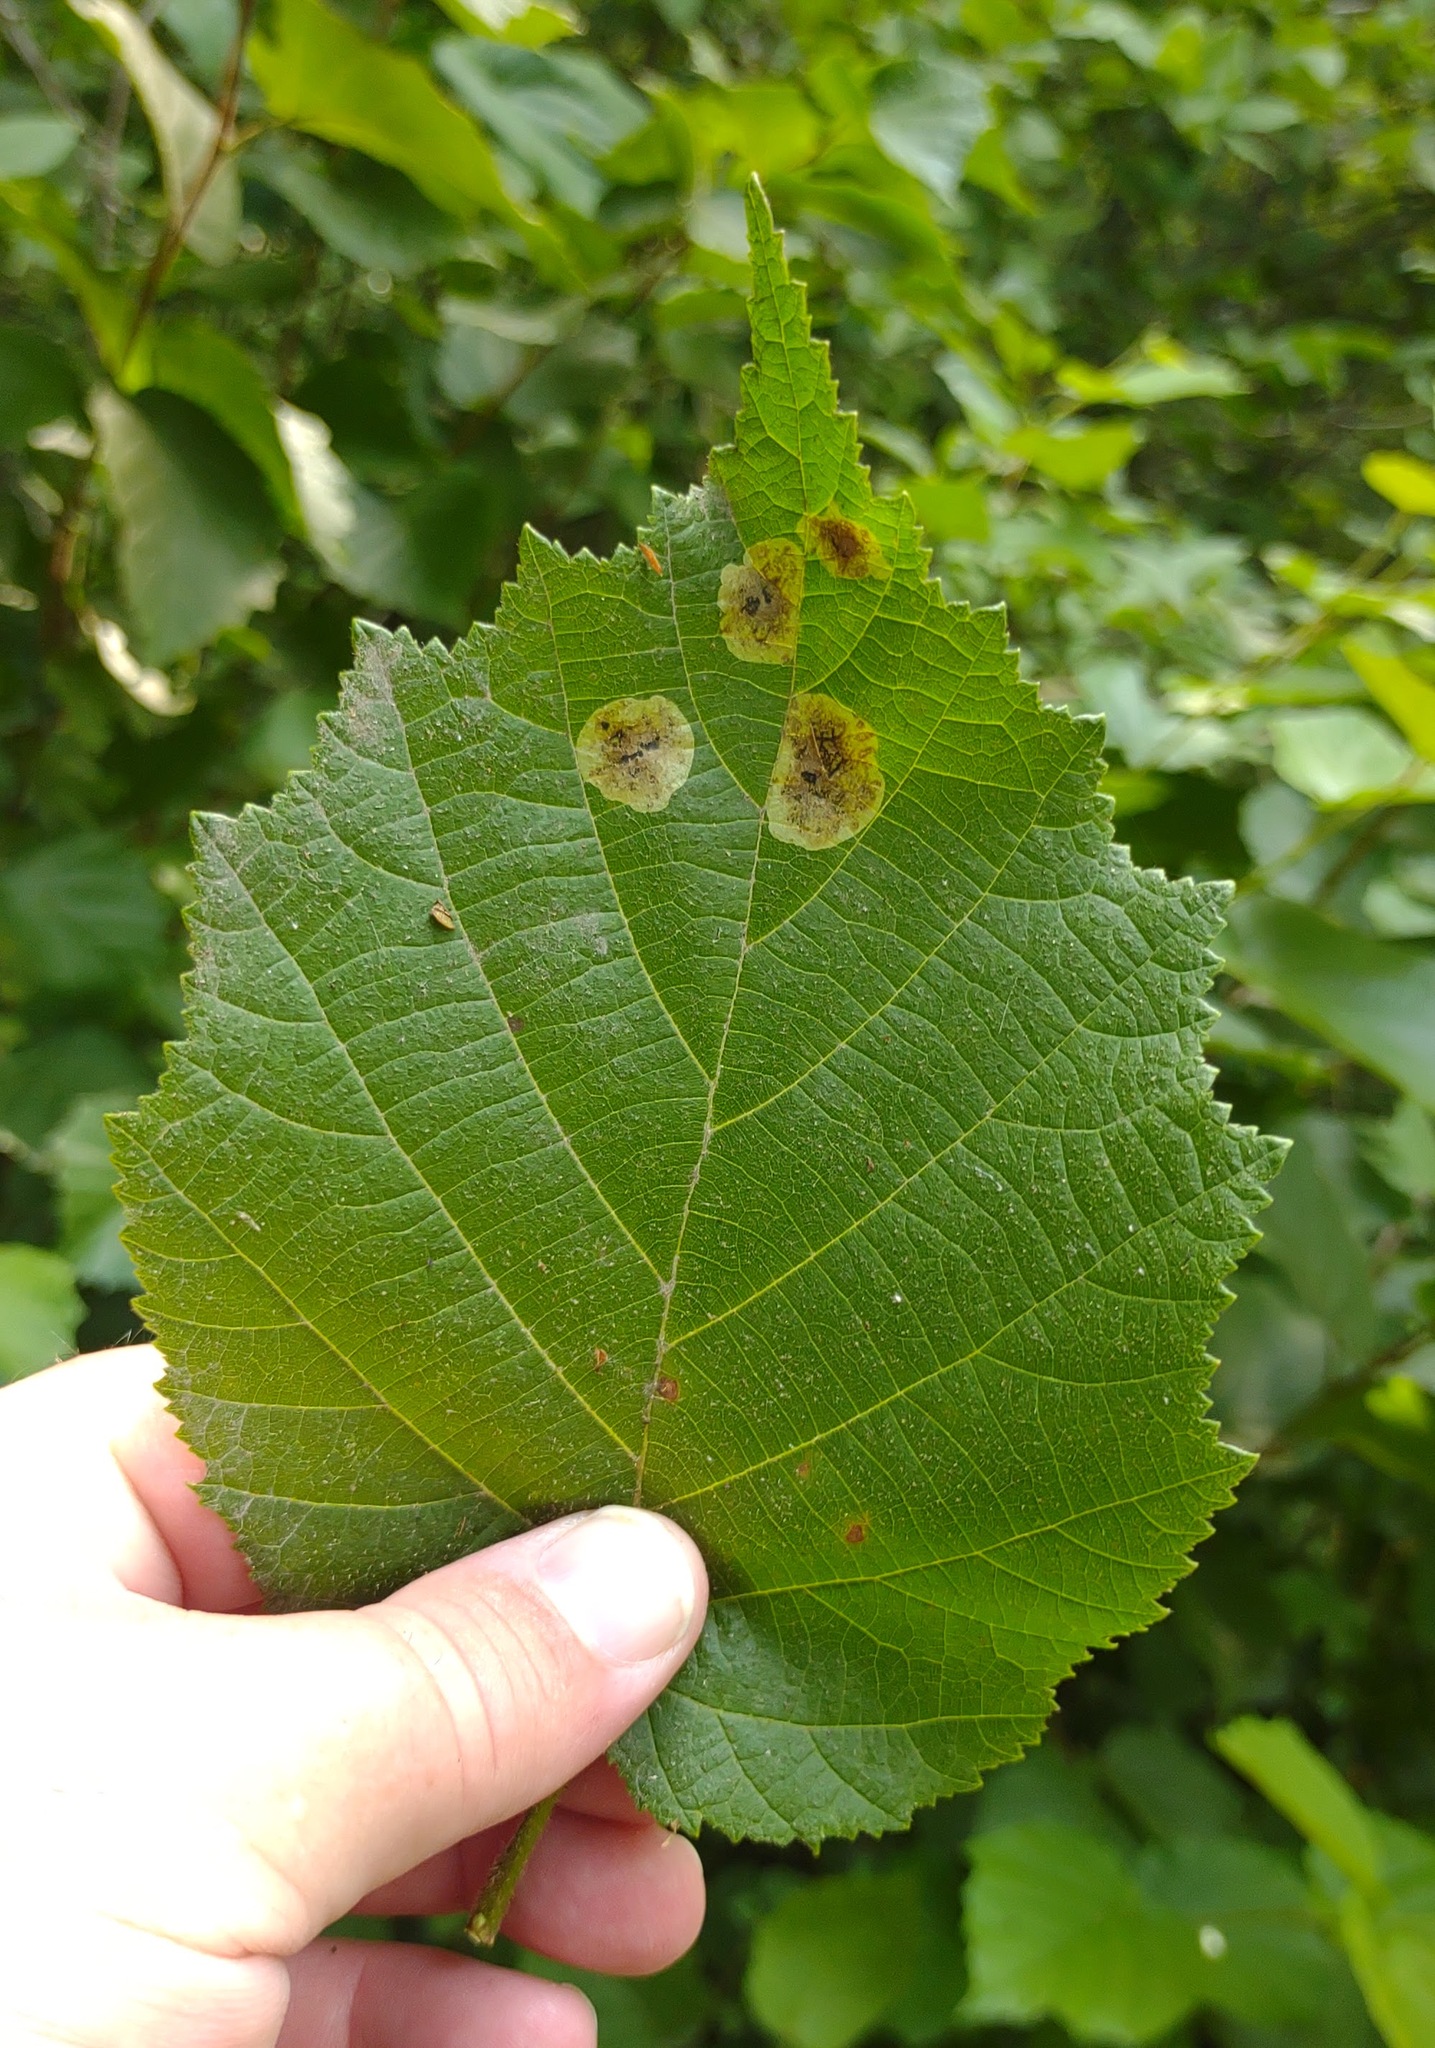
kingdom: Animalia
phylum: Arthropoda
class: Insecta
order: Lepidoptera
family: Gracillariidae
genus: Cameraria
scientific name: Cameraria corylisella
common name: Hazel blotchminer
